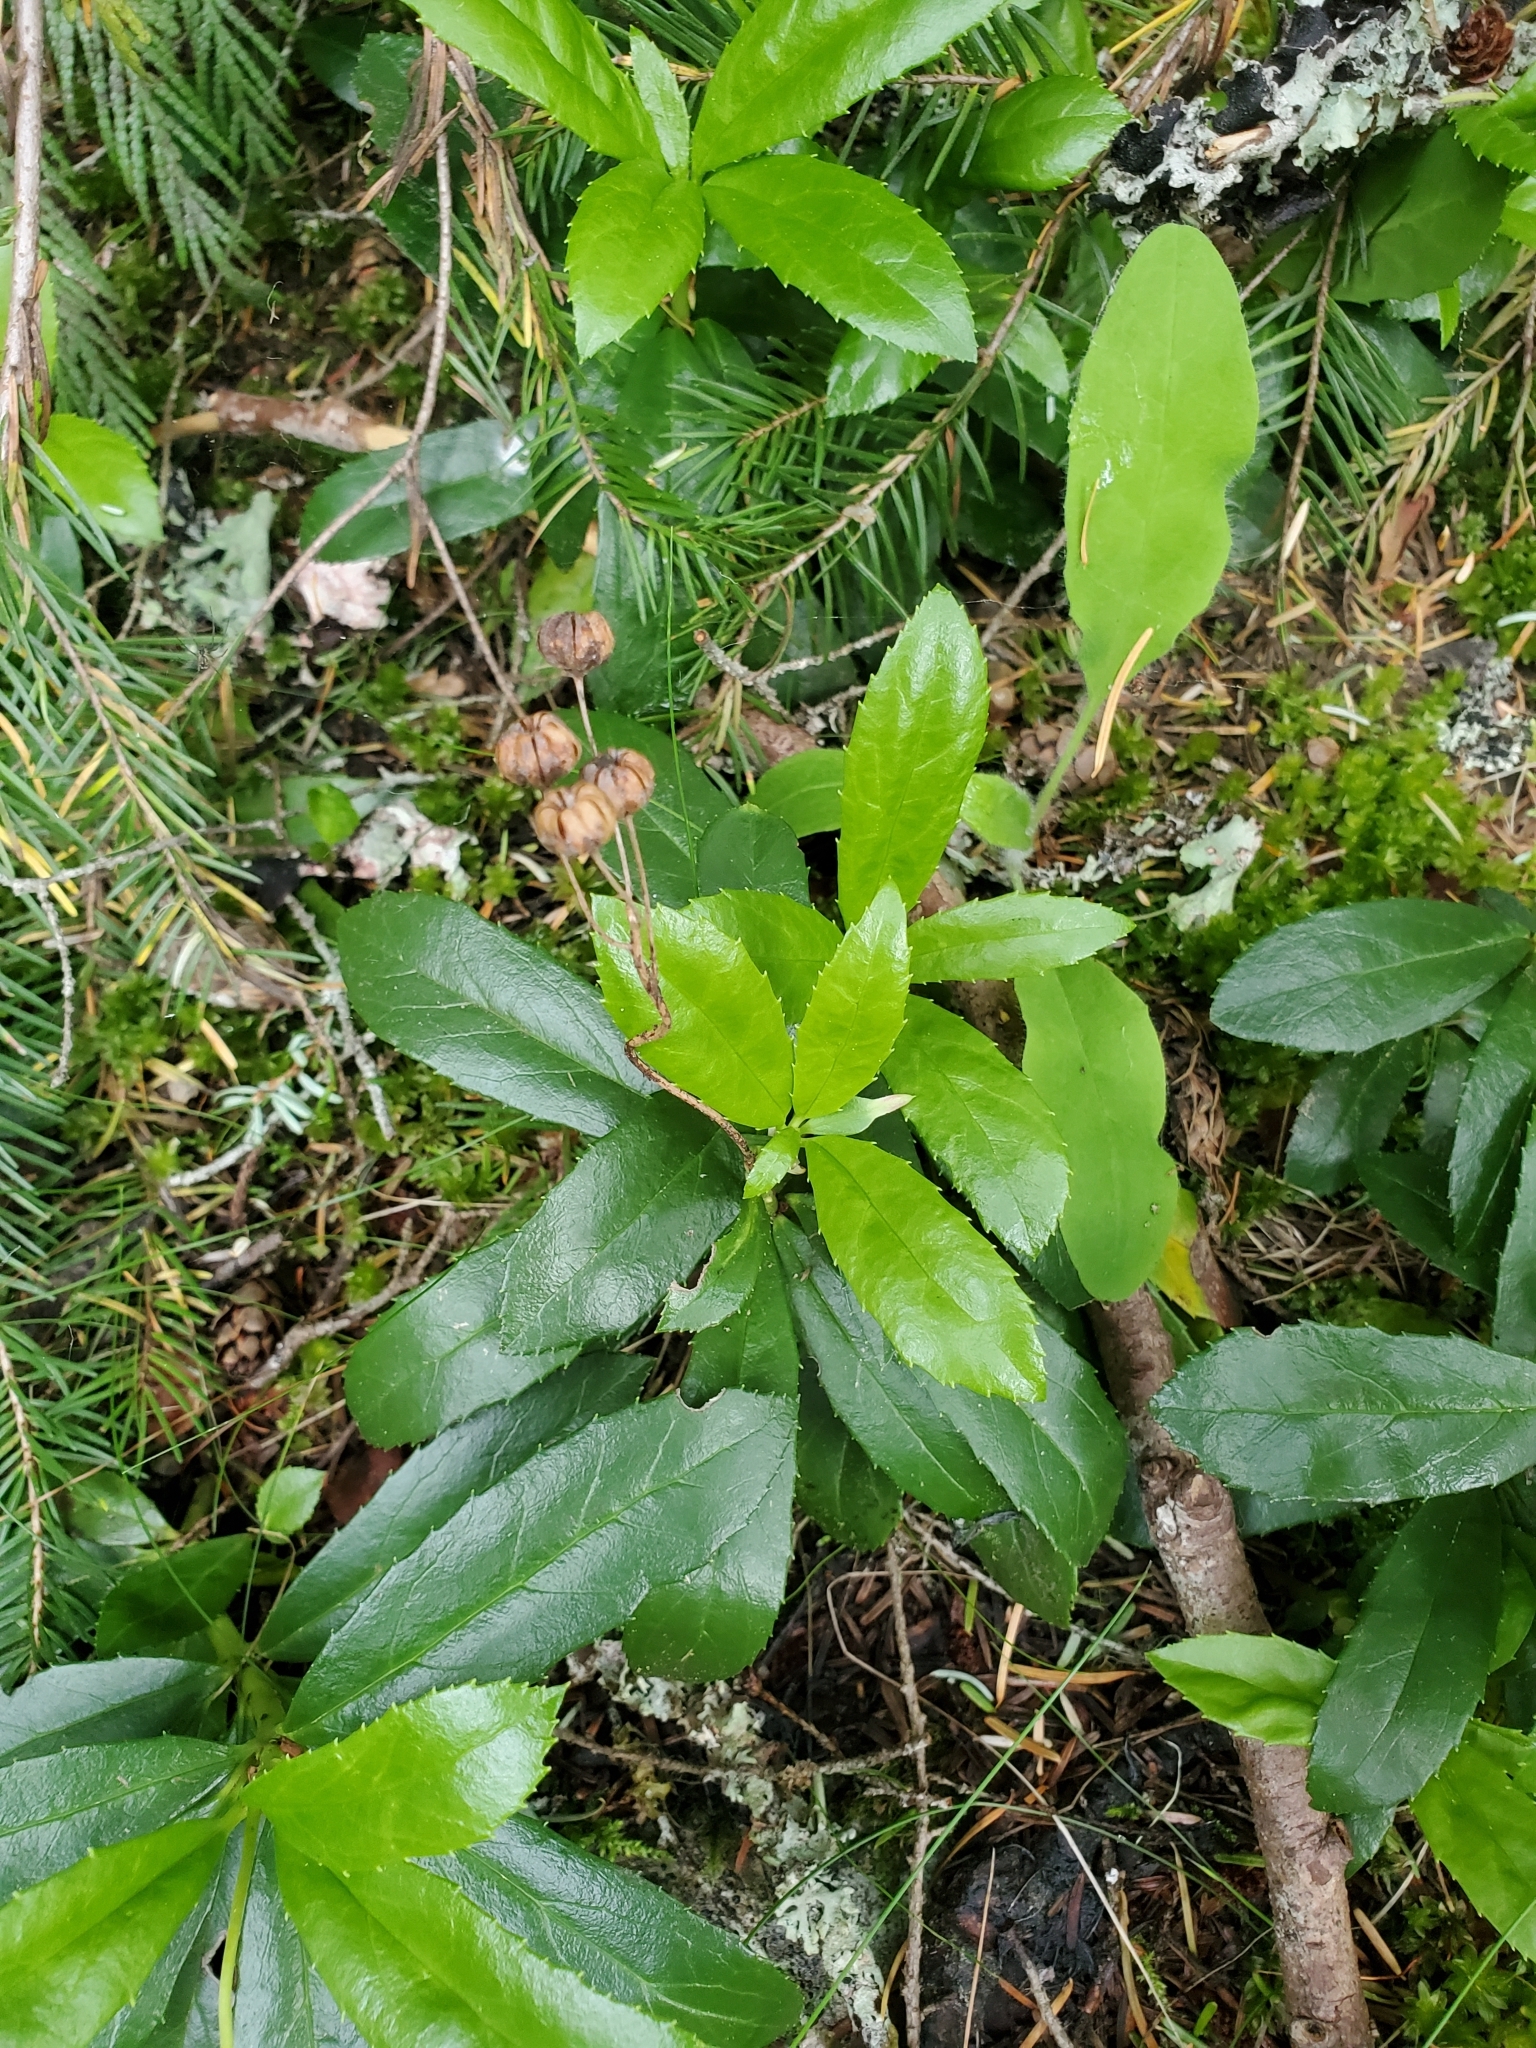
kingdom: Plantae
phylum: Tracheophyta
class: Magnoliopsida
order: Ericales
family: Ericaceae
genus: Chimaphila
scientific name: Chimaphila umbellata
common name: Pipsissewa
